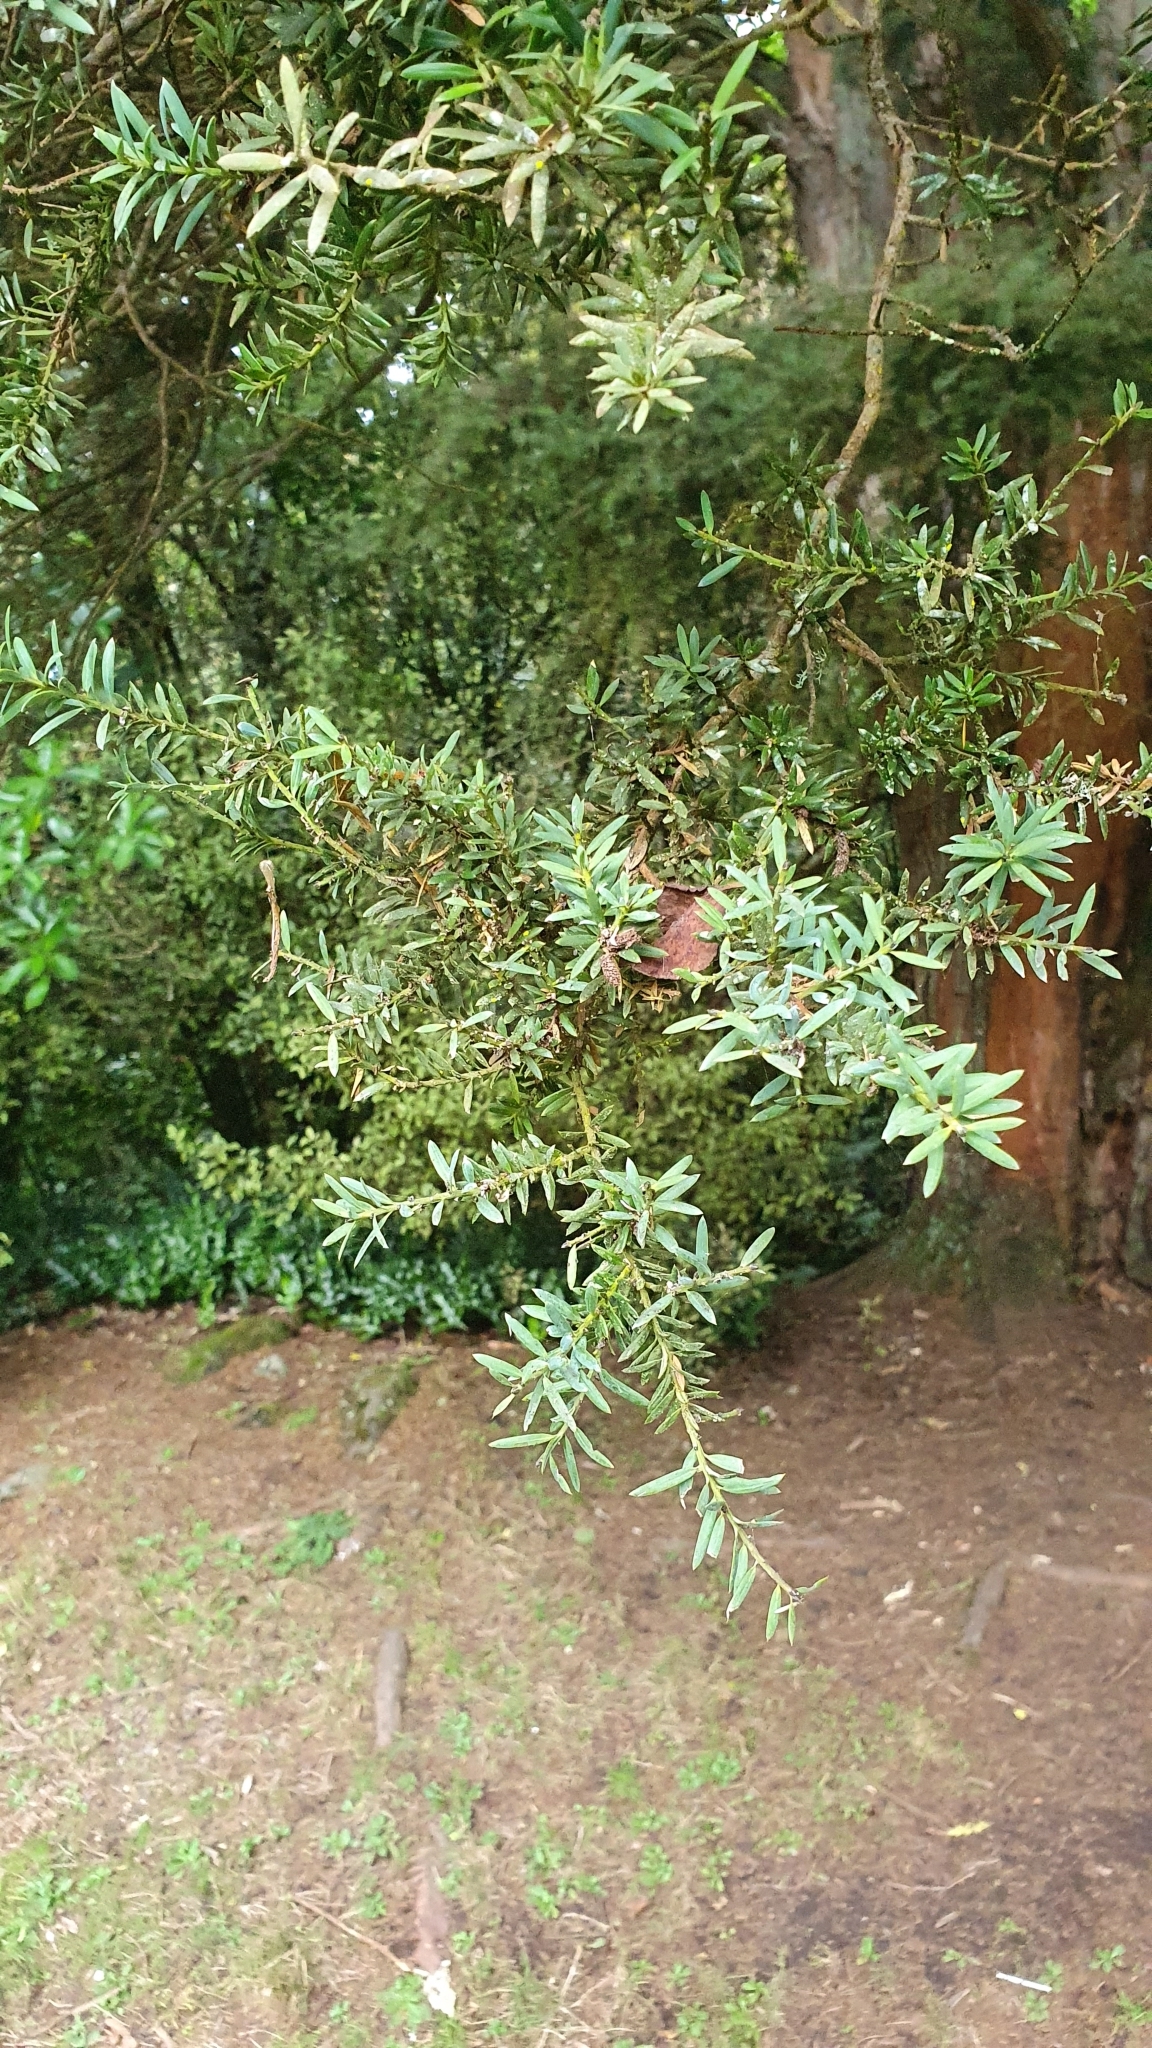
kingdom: Plantae
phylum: Tracheophyta
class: Pinopsida
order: Pinales
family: Podocarpaceae
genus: Podocarpus
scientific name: Podocarpus totara
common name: Totara
